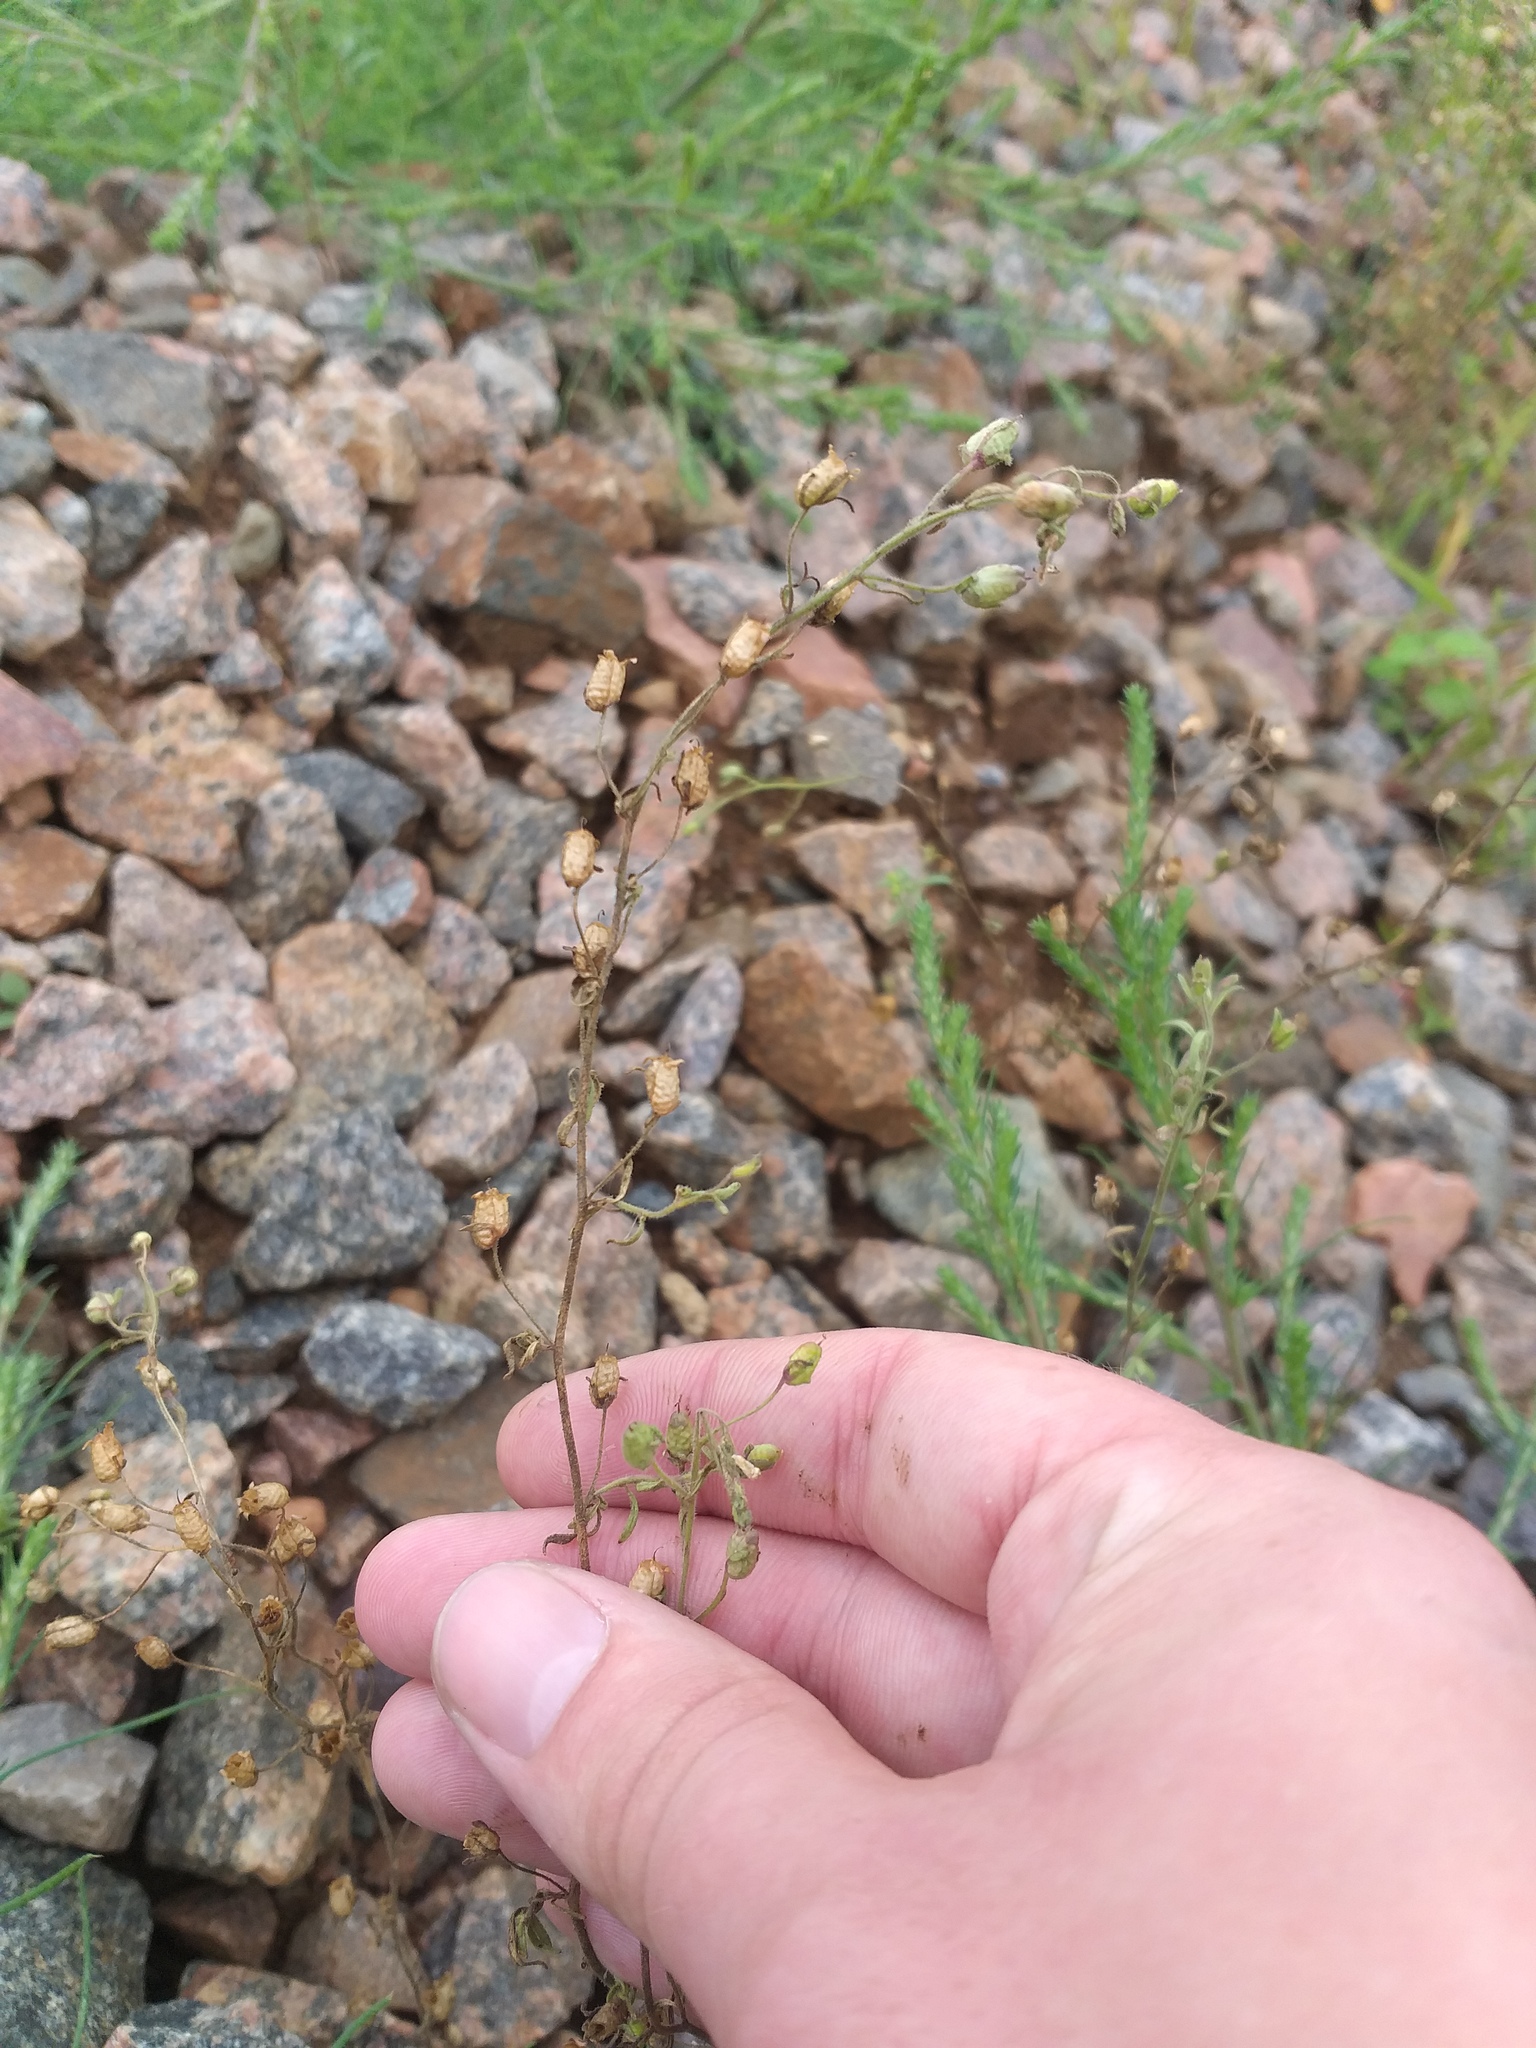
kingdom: Plantae
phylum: Tracheophyta
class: Magnoliopsida
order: Lamiales
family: Plantaginaceae
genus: Chaenorhinum
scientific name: Chaenorhinum minus
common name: Dwarf snapdragon
